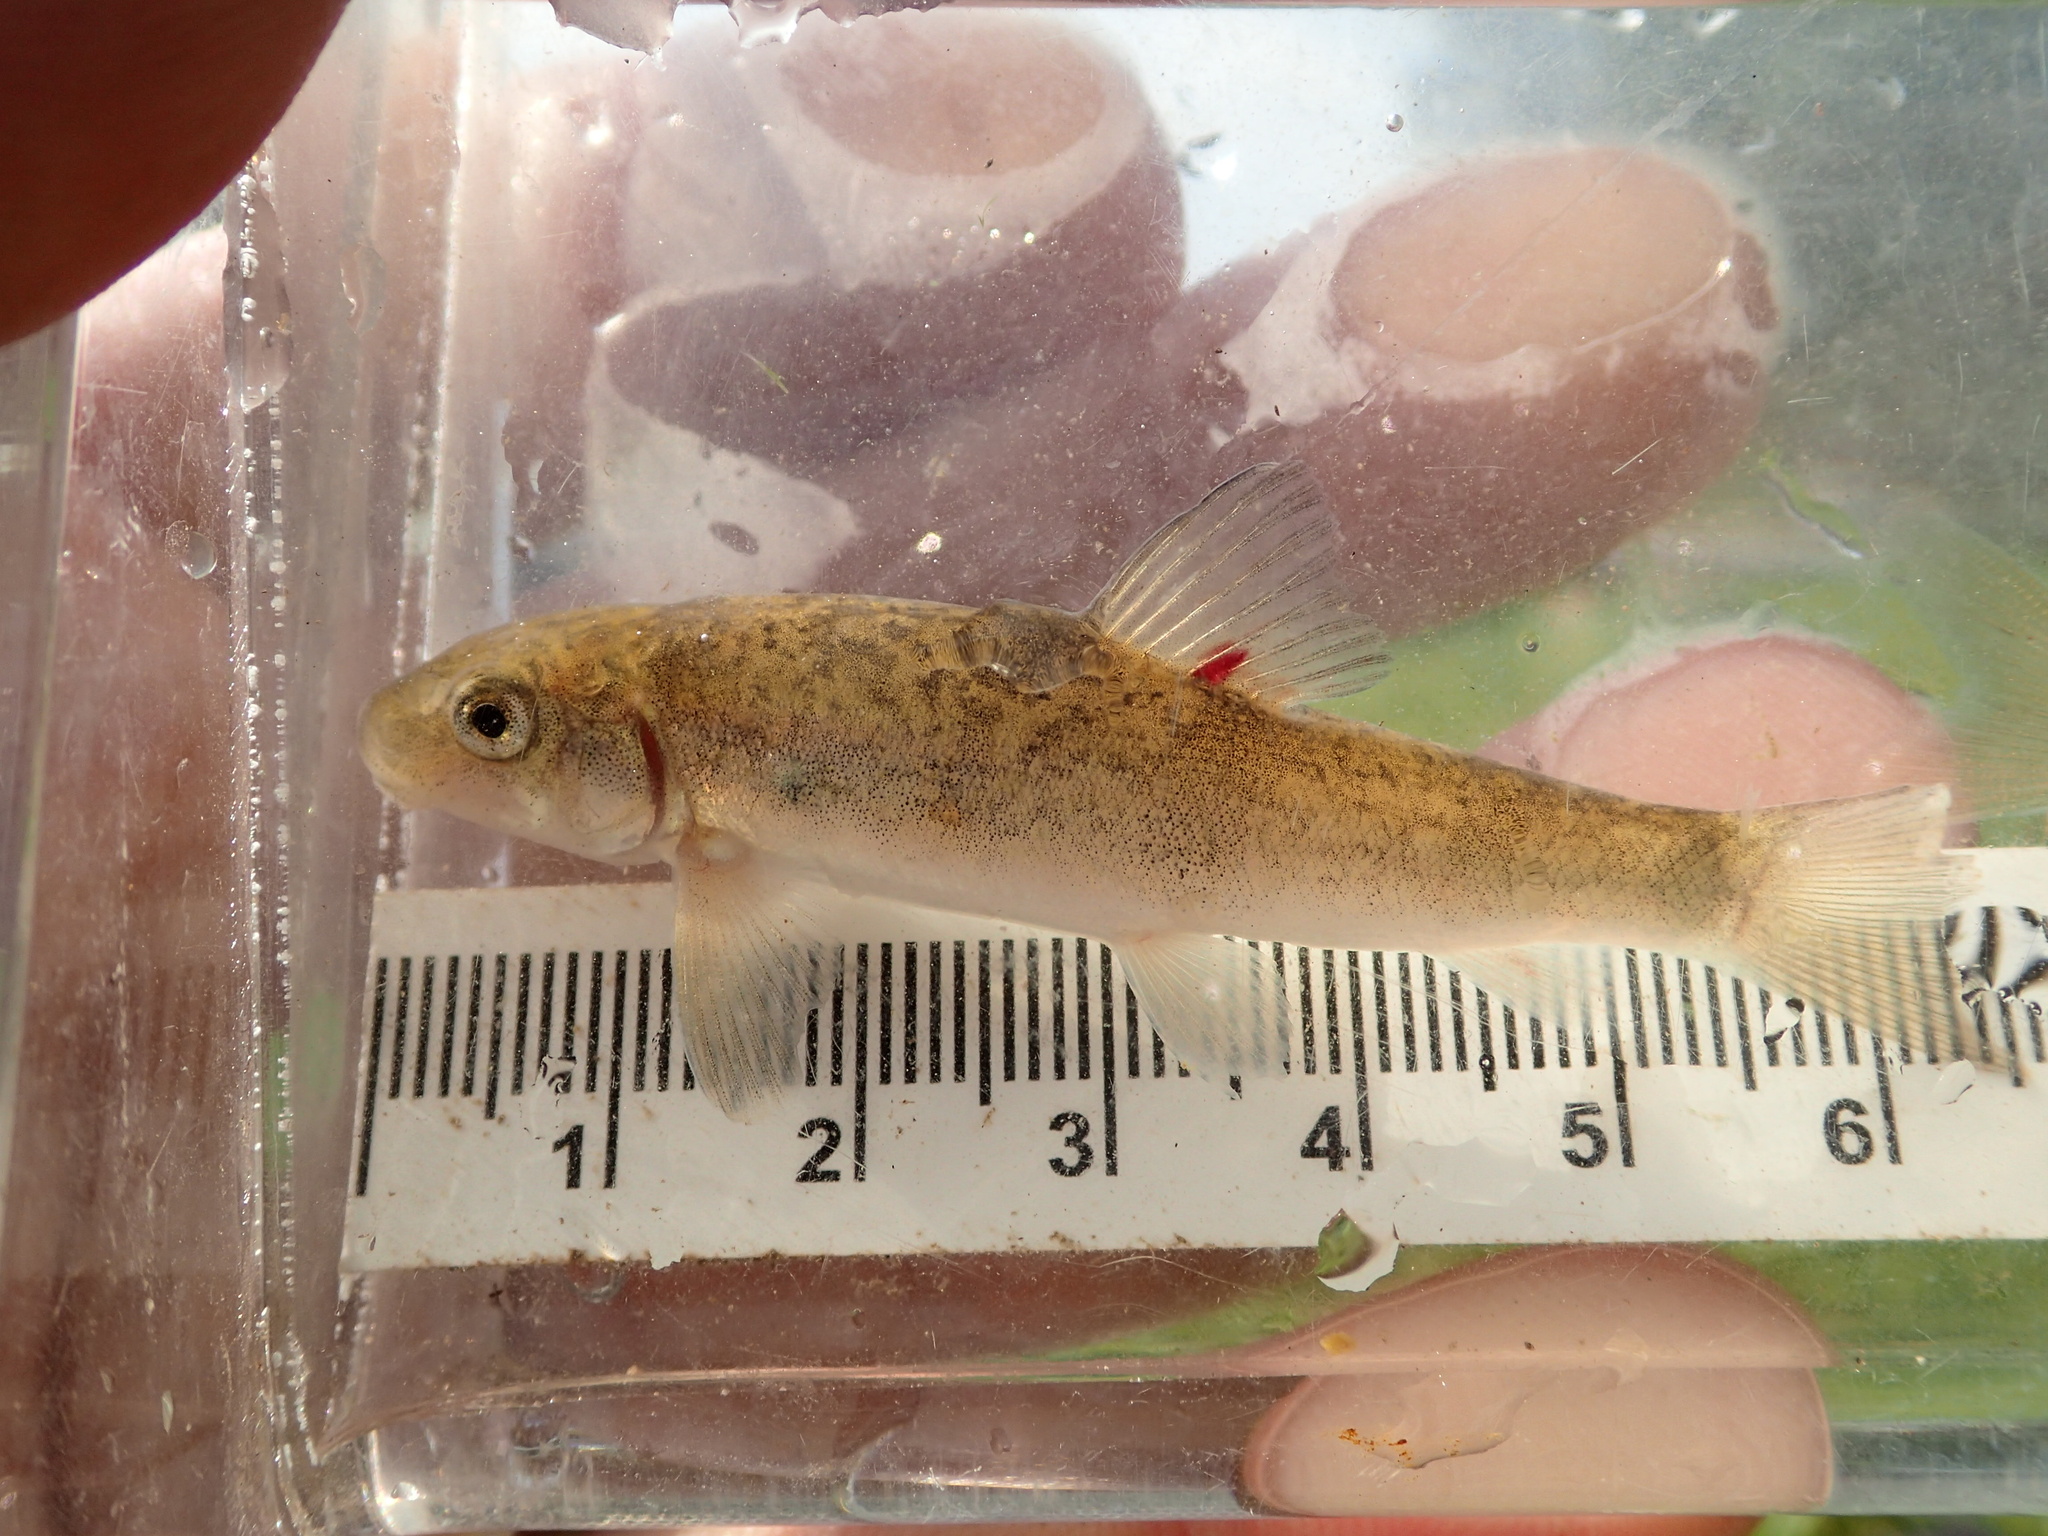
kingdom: Animalia
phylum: Chordata
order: Cypriniformes
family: Catostomidae
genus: Catostomus
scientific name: Catostomus commersonii
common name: White sucker
